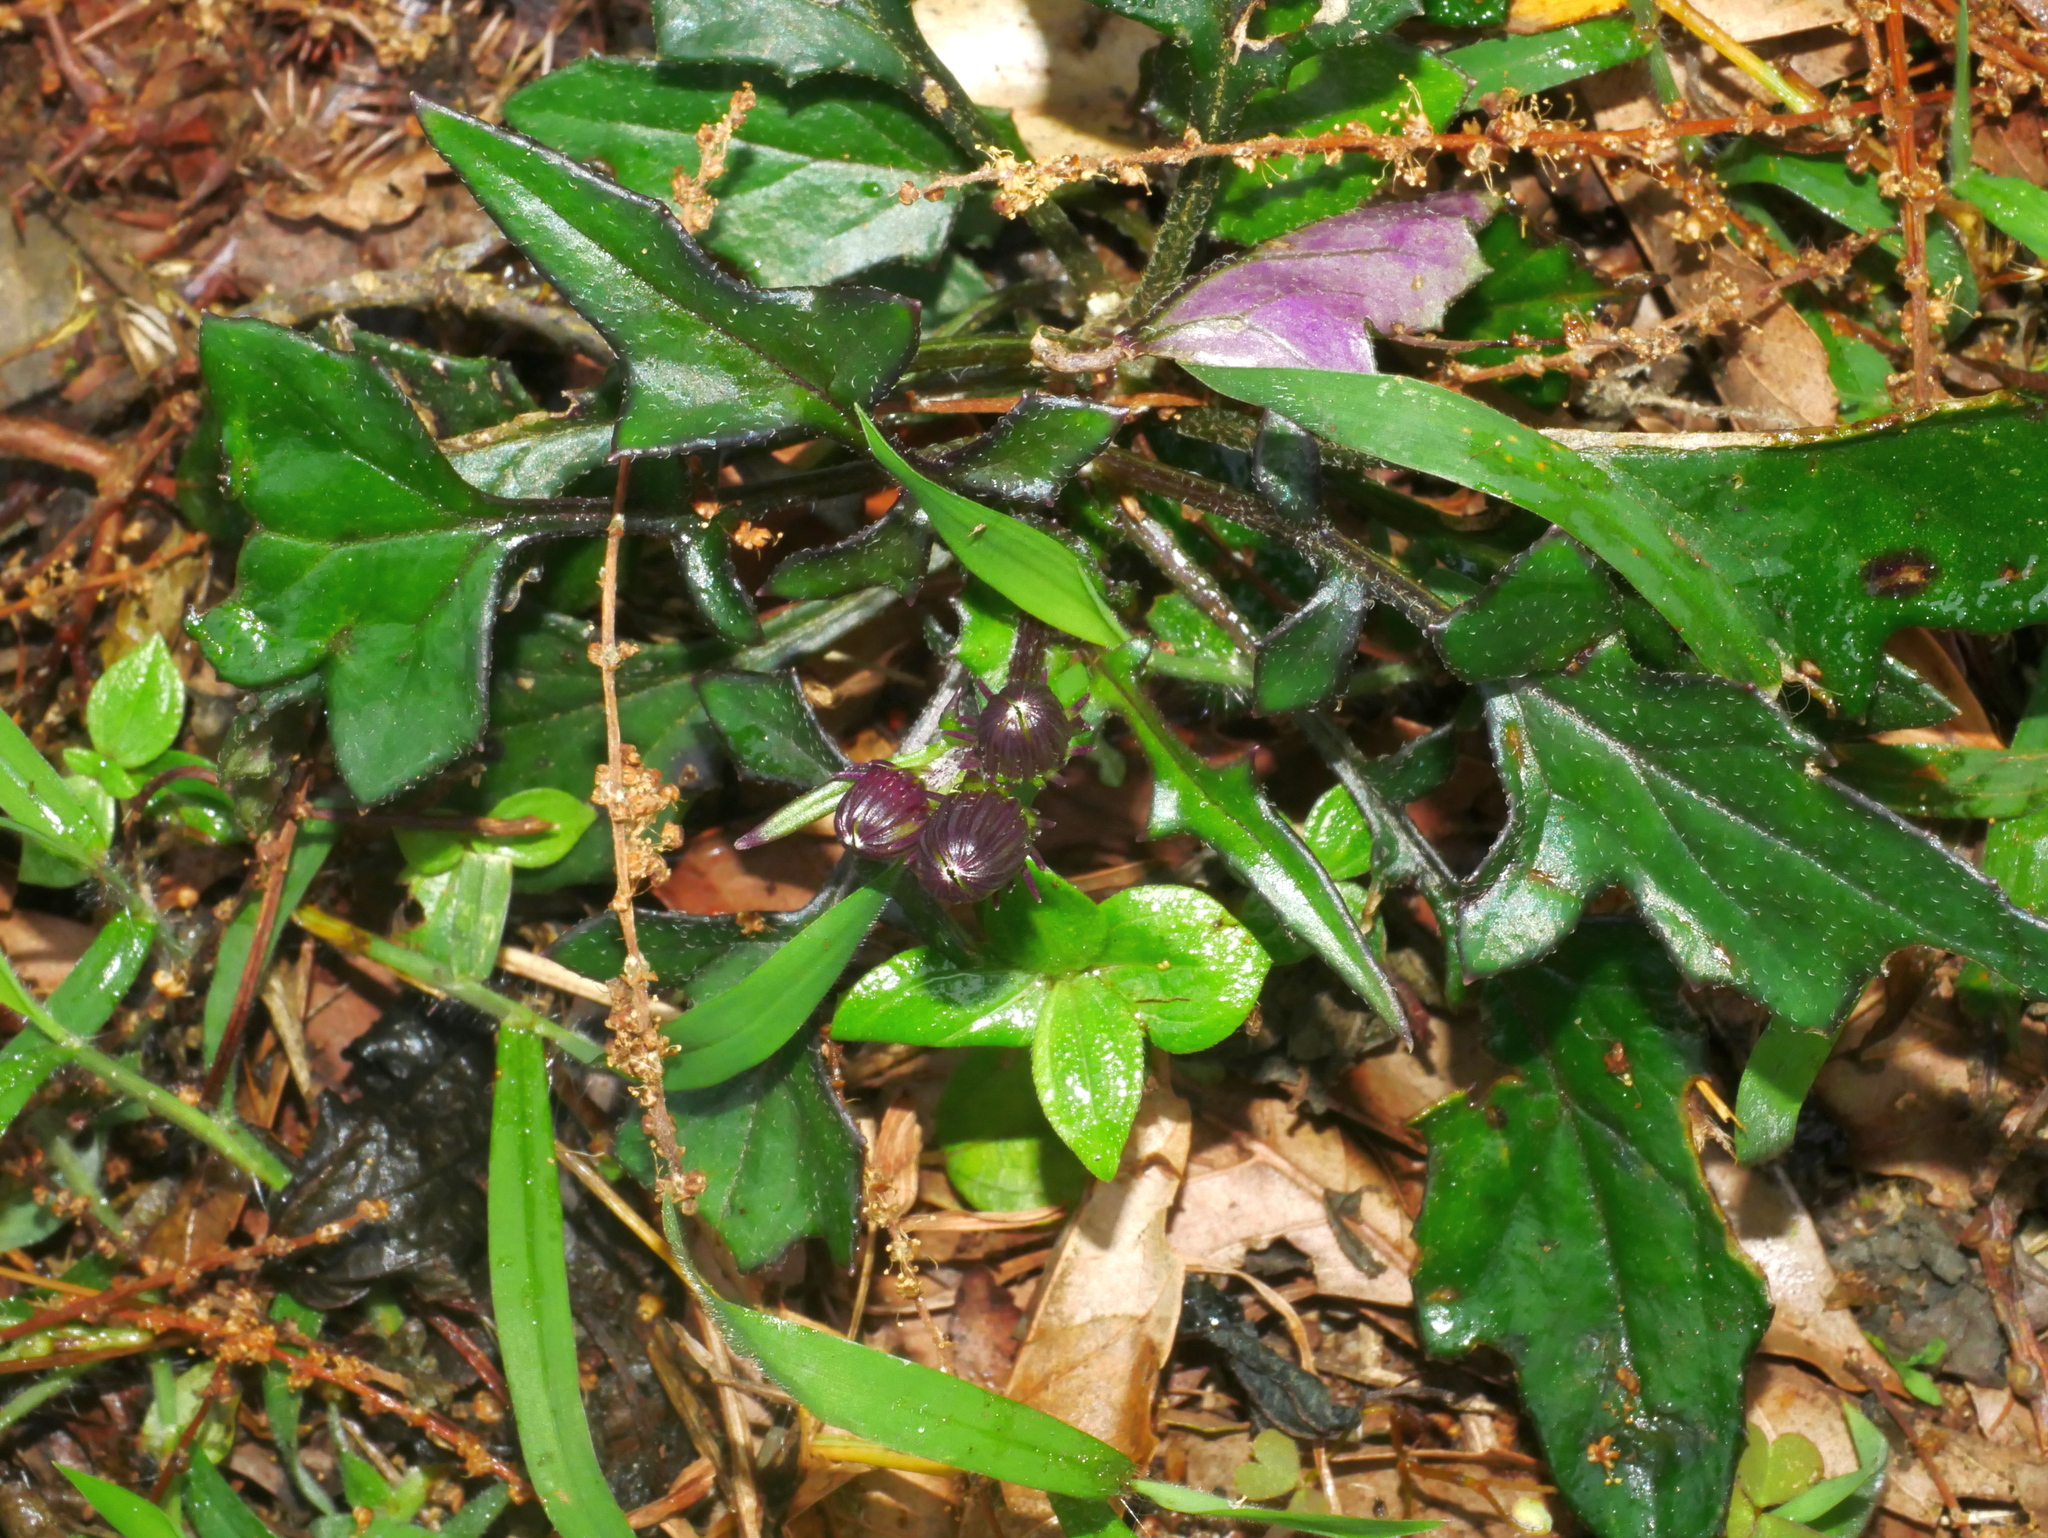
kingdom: Plantae
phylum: Tracheophyta
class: Magnoliopsida
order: Asterales
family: Asteraceae
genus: Gynura
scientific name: Gynura japonica
